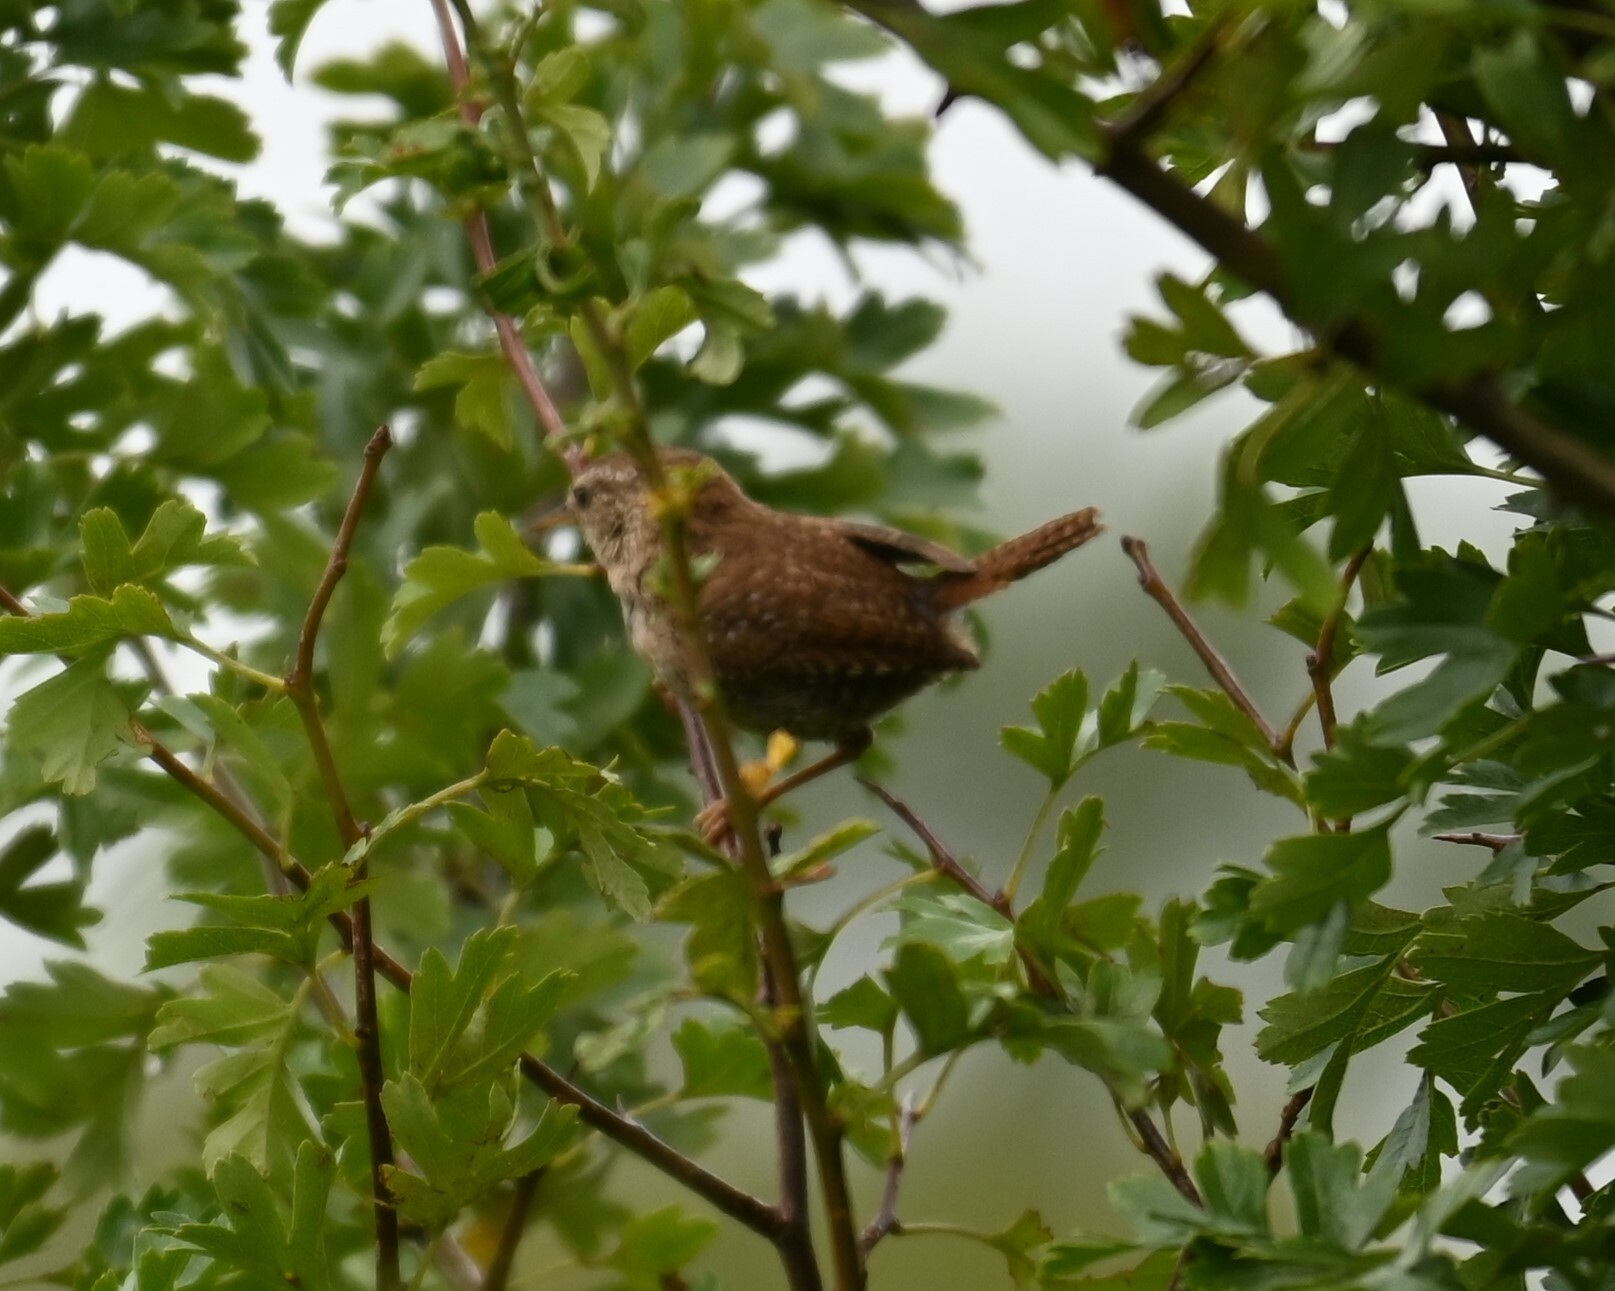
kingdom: Animalia
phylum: Chordata
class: Aves
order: Passeriformes
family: Troglodytidae
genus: Troglodytes
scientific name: Troglodytes troglodytes
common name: Eurasian wren
